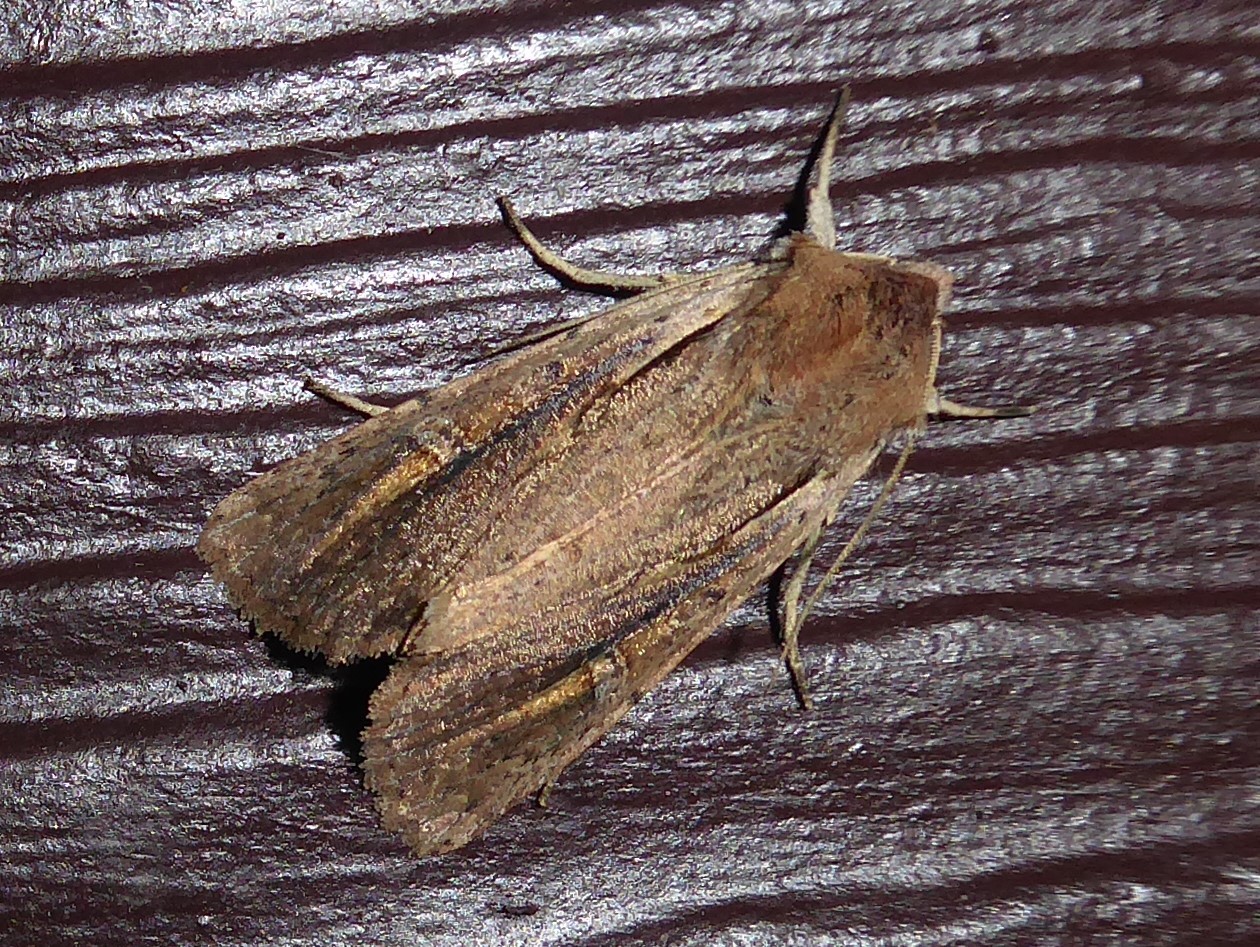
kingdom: Animalia
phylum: Arthropoda
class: Insecta
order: Lepidoptera
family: Noctuidae
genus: Ichneutica
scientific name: Ichneutica atristriga
